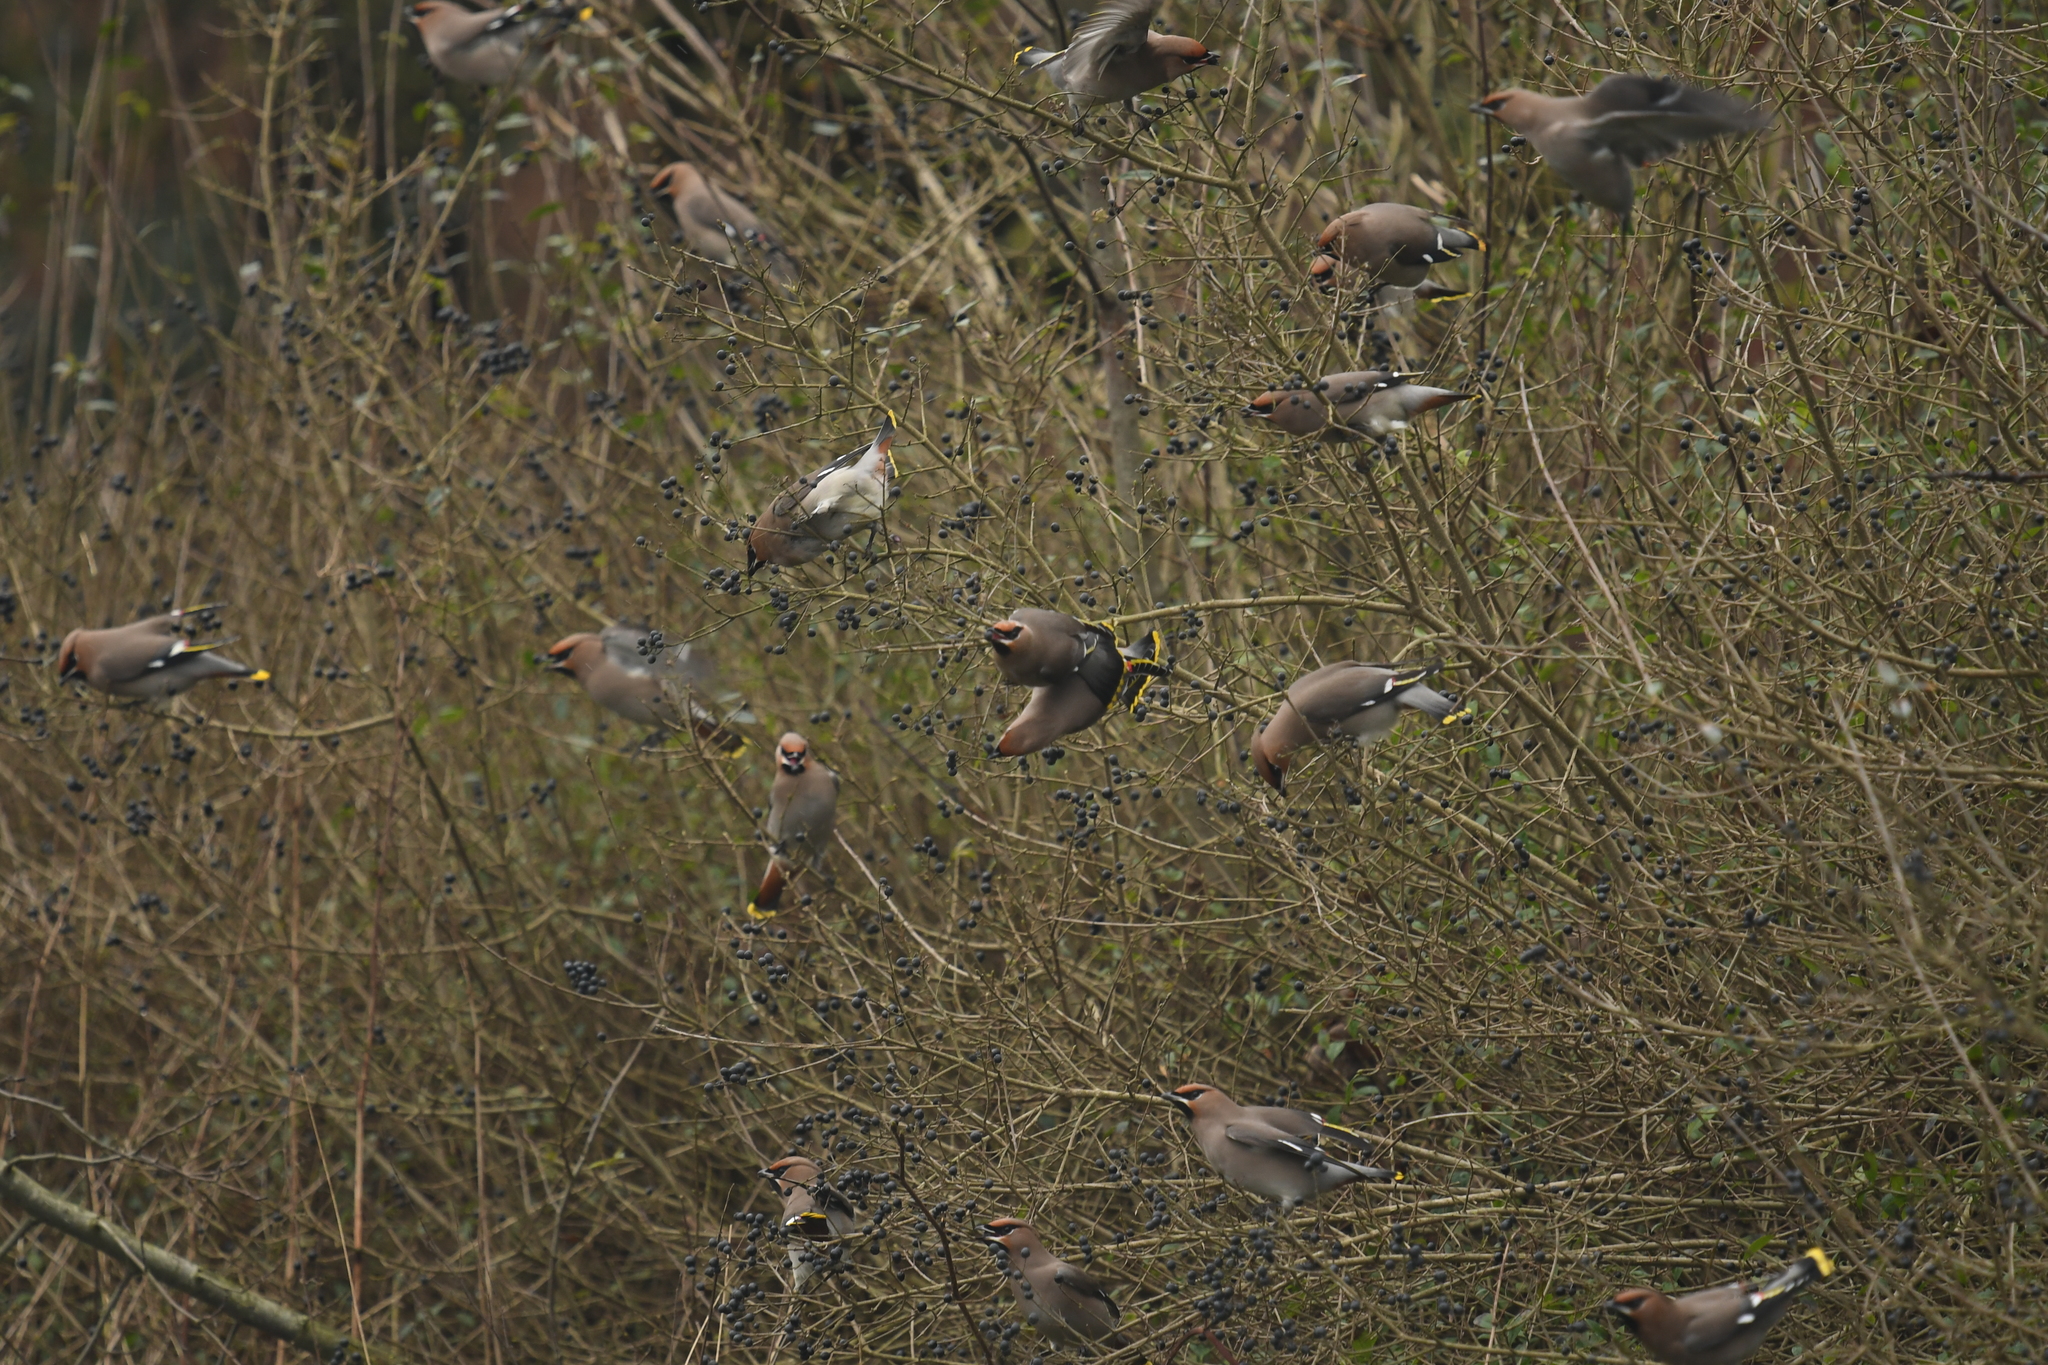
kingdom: Animalia
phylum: Chordata
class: Aves
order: Passeriformes
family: Bombycillidae
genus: Bombycilla
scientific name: Bombycilla garrulus
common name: Bohemian waxwing
